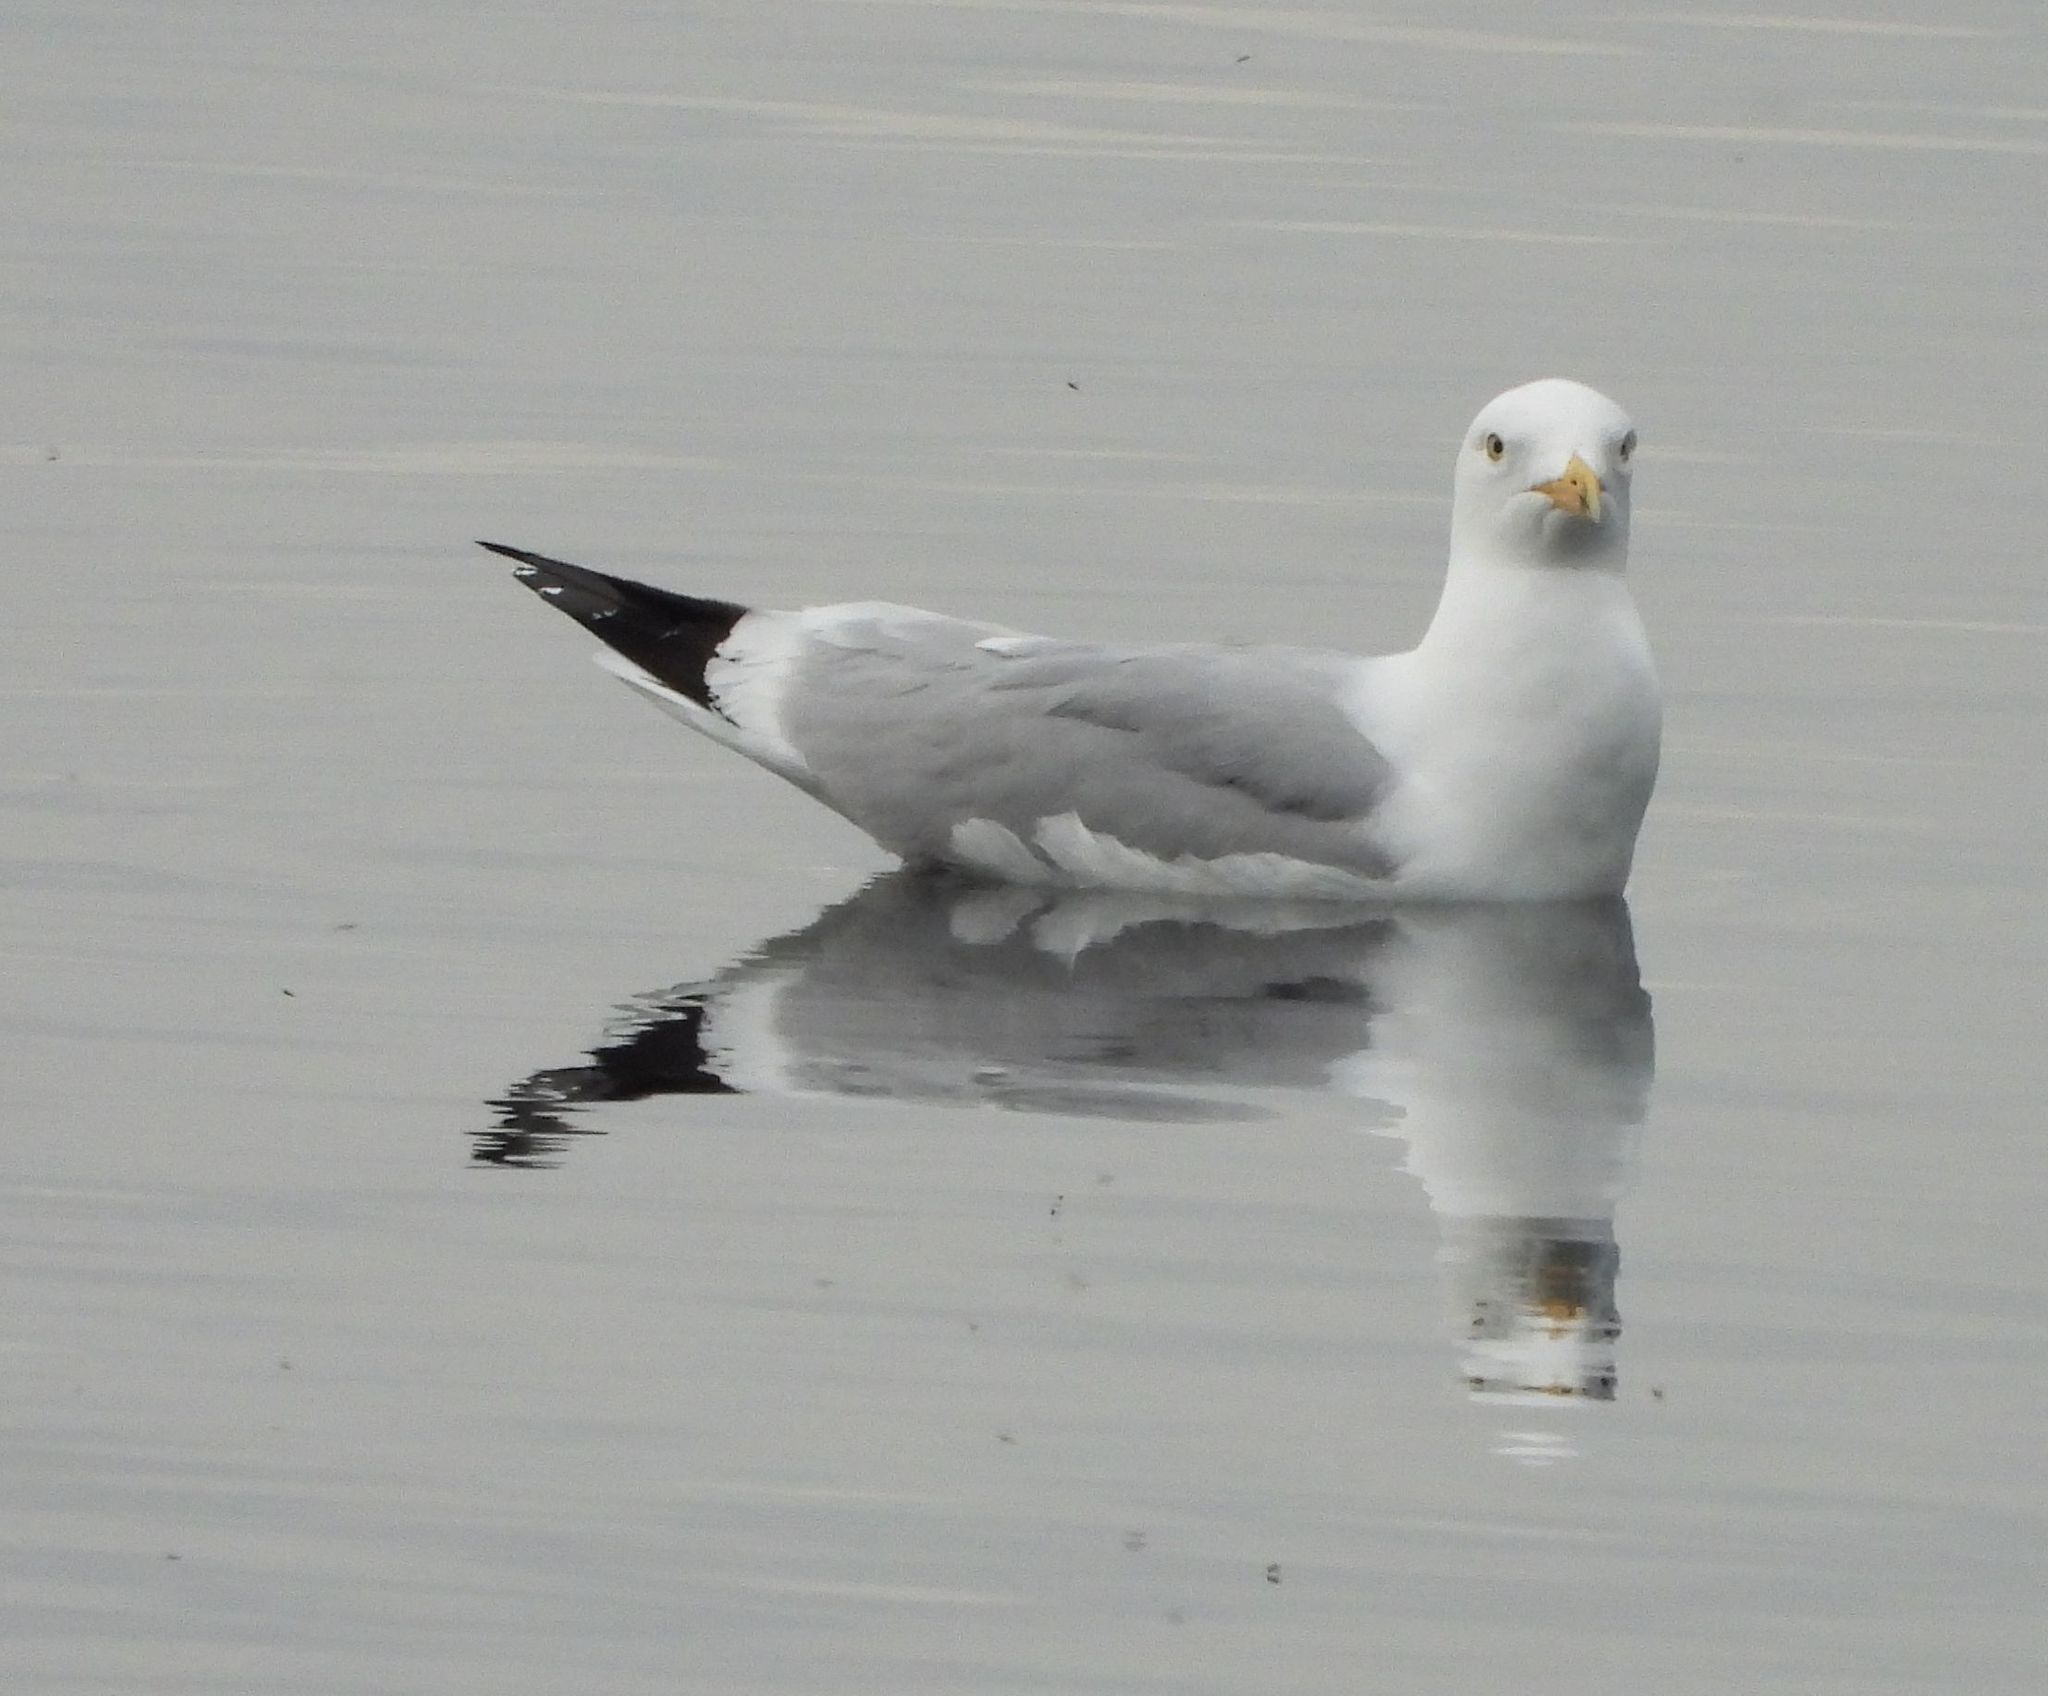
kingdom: Animalia
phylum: Chordata
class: Aves
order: Charadriiformes
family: Laridae
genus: Larus
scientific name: Larus delawarensis
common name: Ring-billed gull
